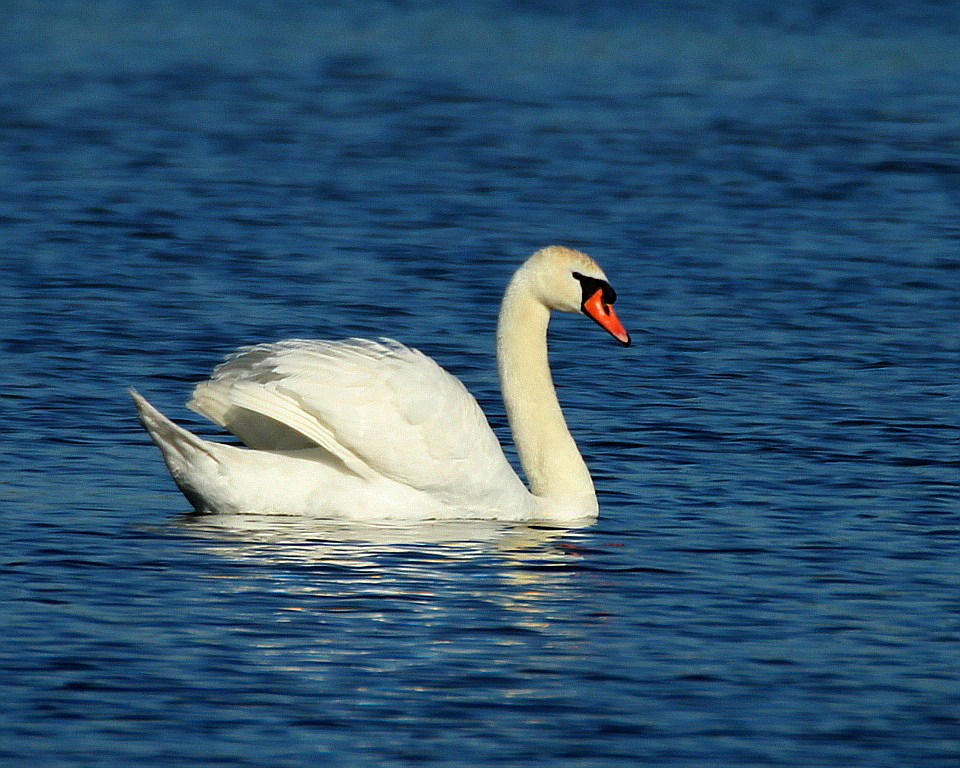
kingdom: Animalia
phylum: Chordata
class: Aves
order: Anseriformes
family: Anatidae
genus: Cygnus
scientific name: Cygnus olor
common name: Mute swan
